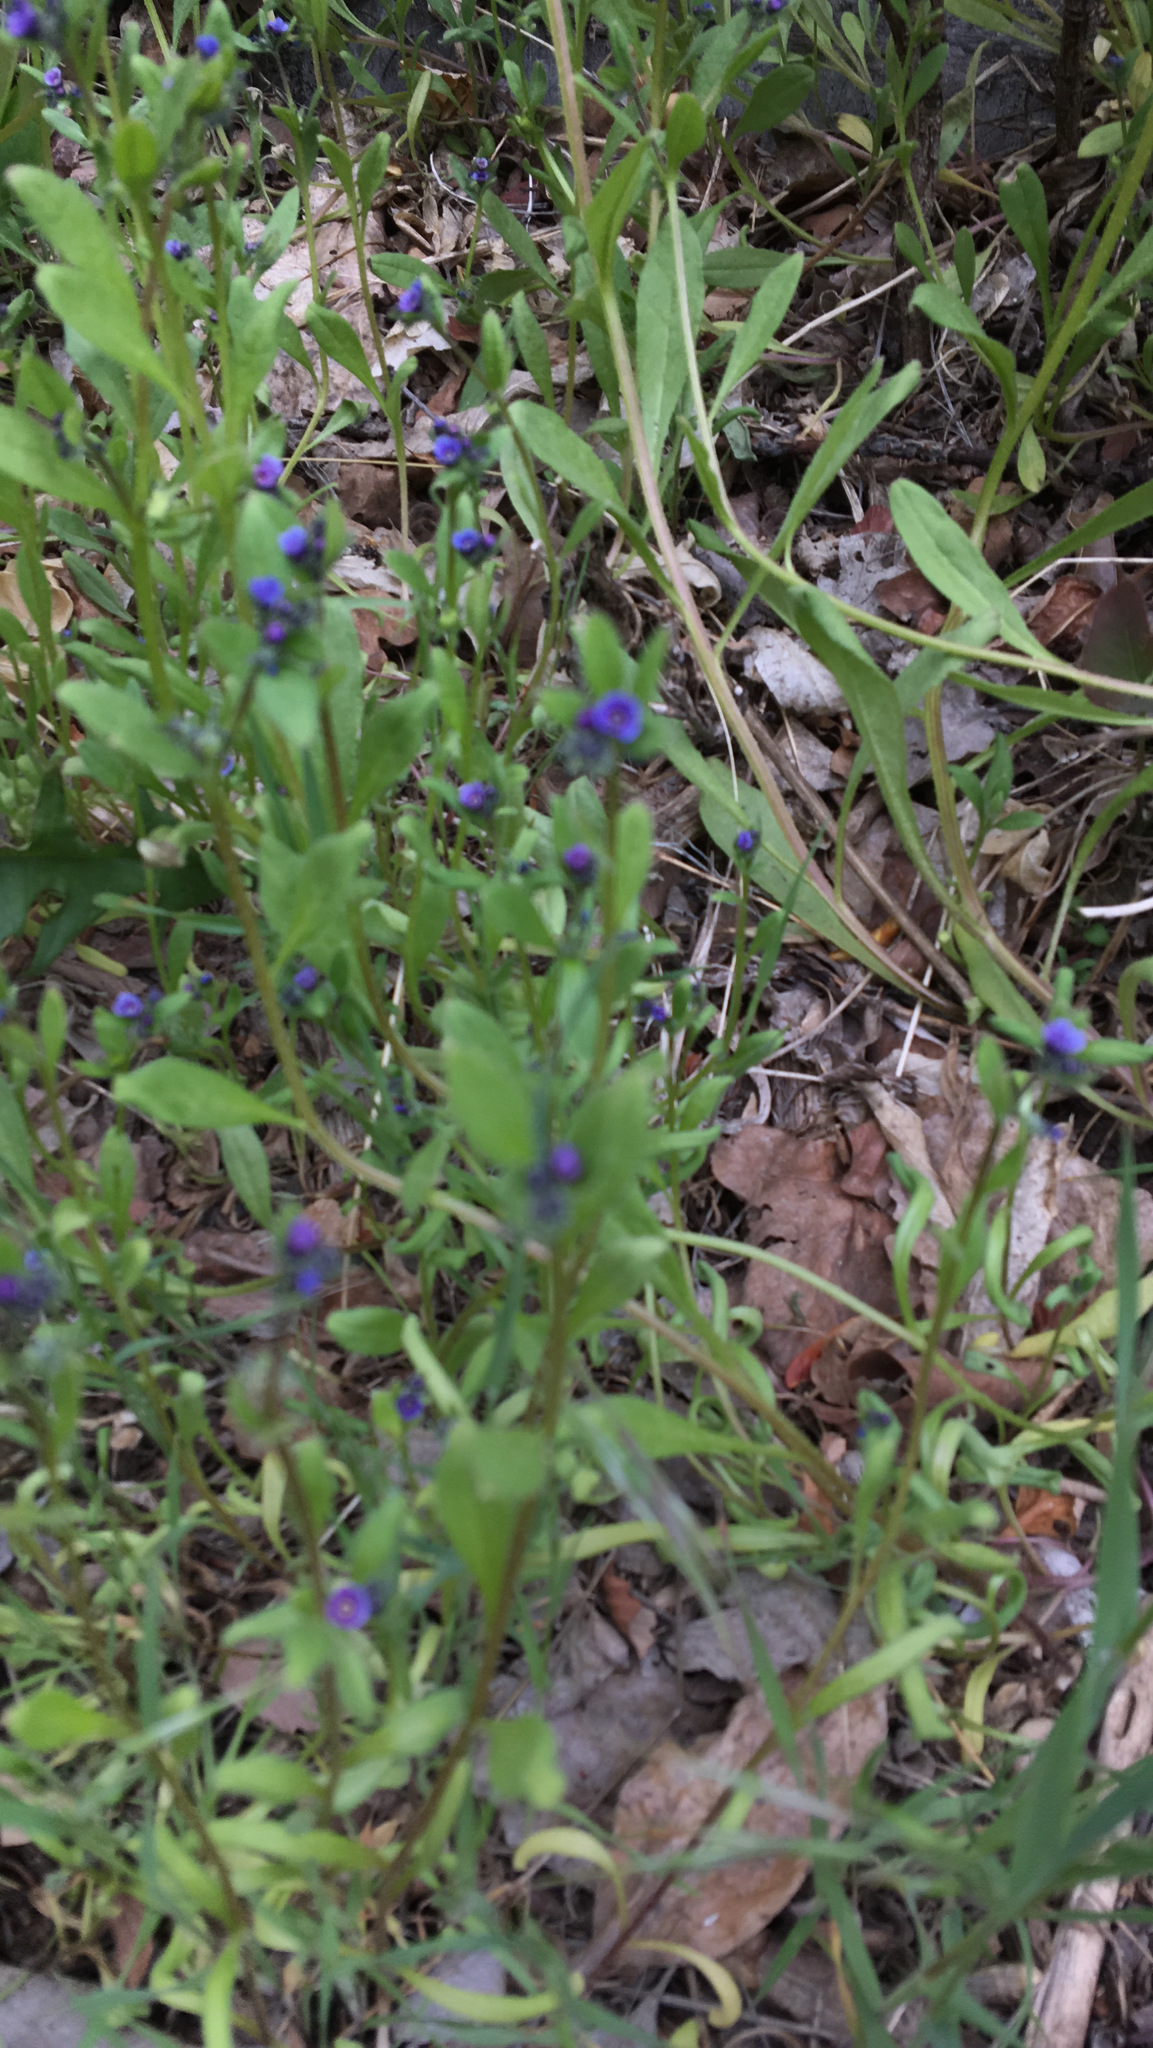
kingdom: Plantae
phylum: Tracheophyta
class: Magnoliopsida
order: Boraginales
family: Boraginaceae
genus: Asperugo
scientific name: Asperugo procumbens
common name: Madwort
